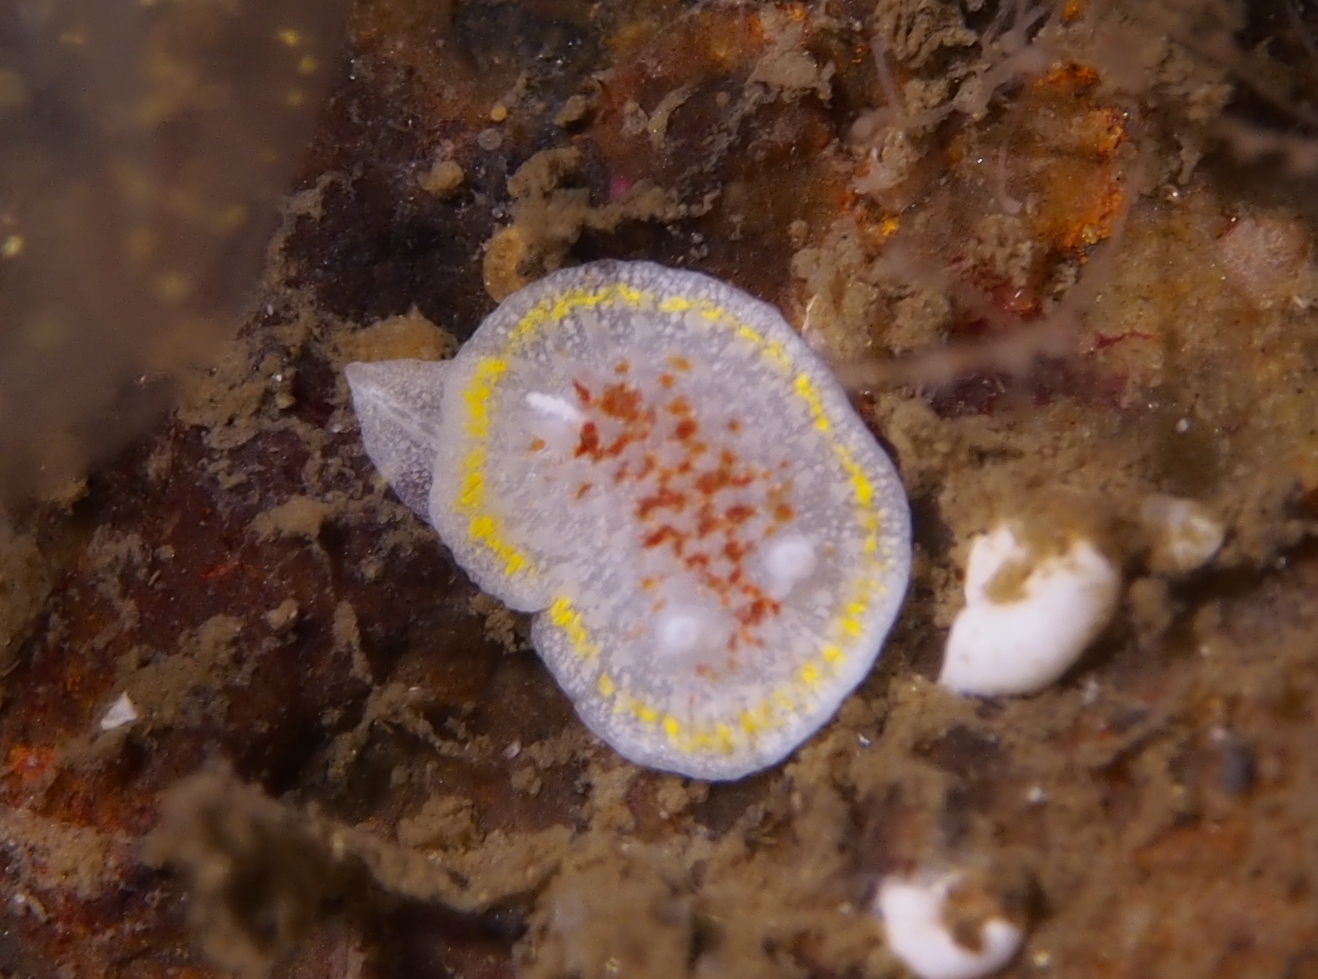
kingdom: Animalia
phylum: Mollusca
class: Gastropoda
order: Nudibranchia
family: Calycidorididae
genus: Diaphorodoris
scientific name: Diaphorodoris luteocincta
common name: Fried egg nudibranch
